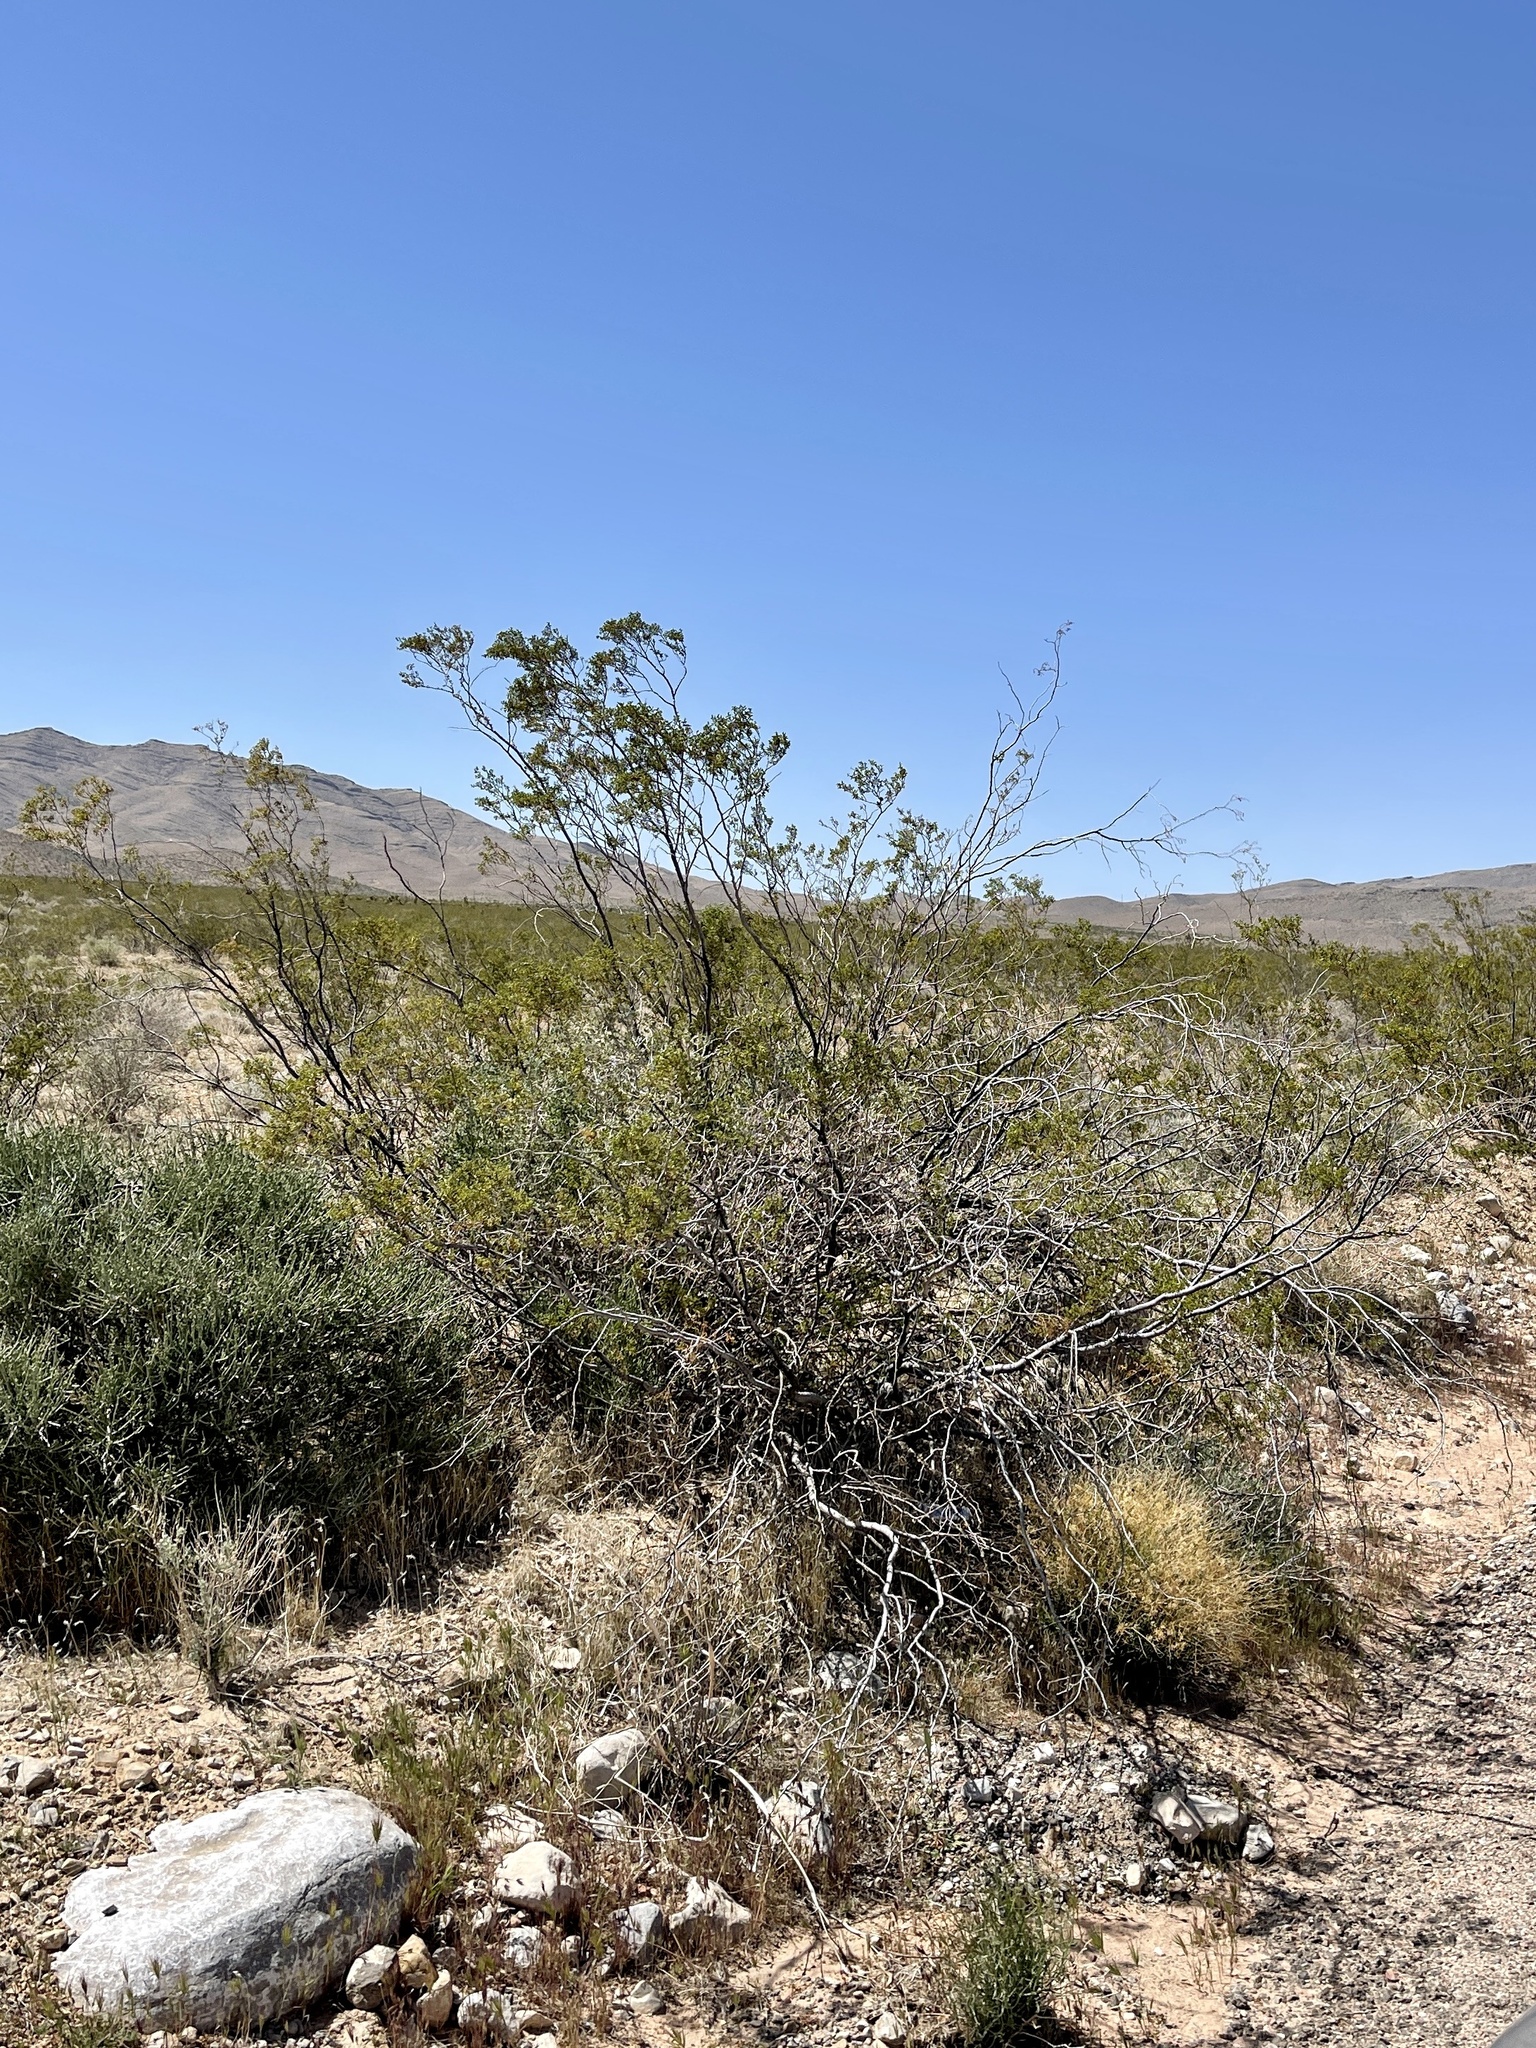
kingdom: Plantae
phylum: Tracheophyta
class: Magnoliopsida
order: Zygophyllales
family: Zygophyllaceae
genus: Larrea
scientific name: Larrea tridentata
